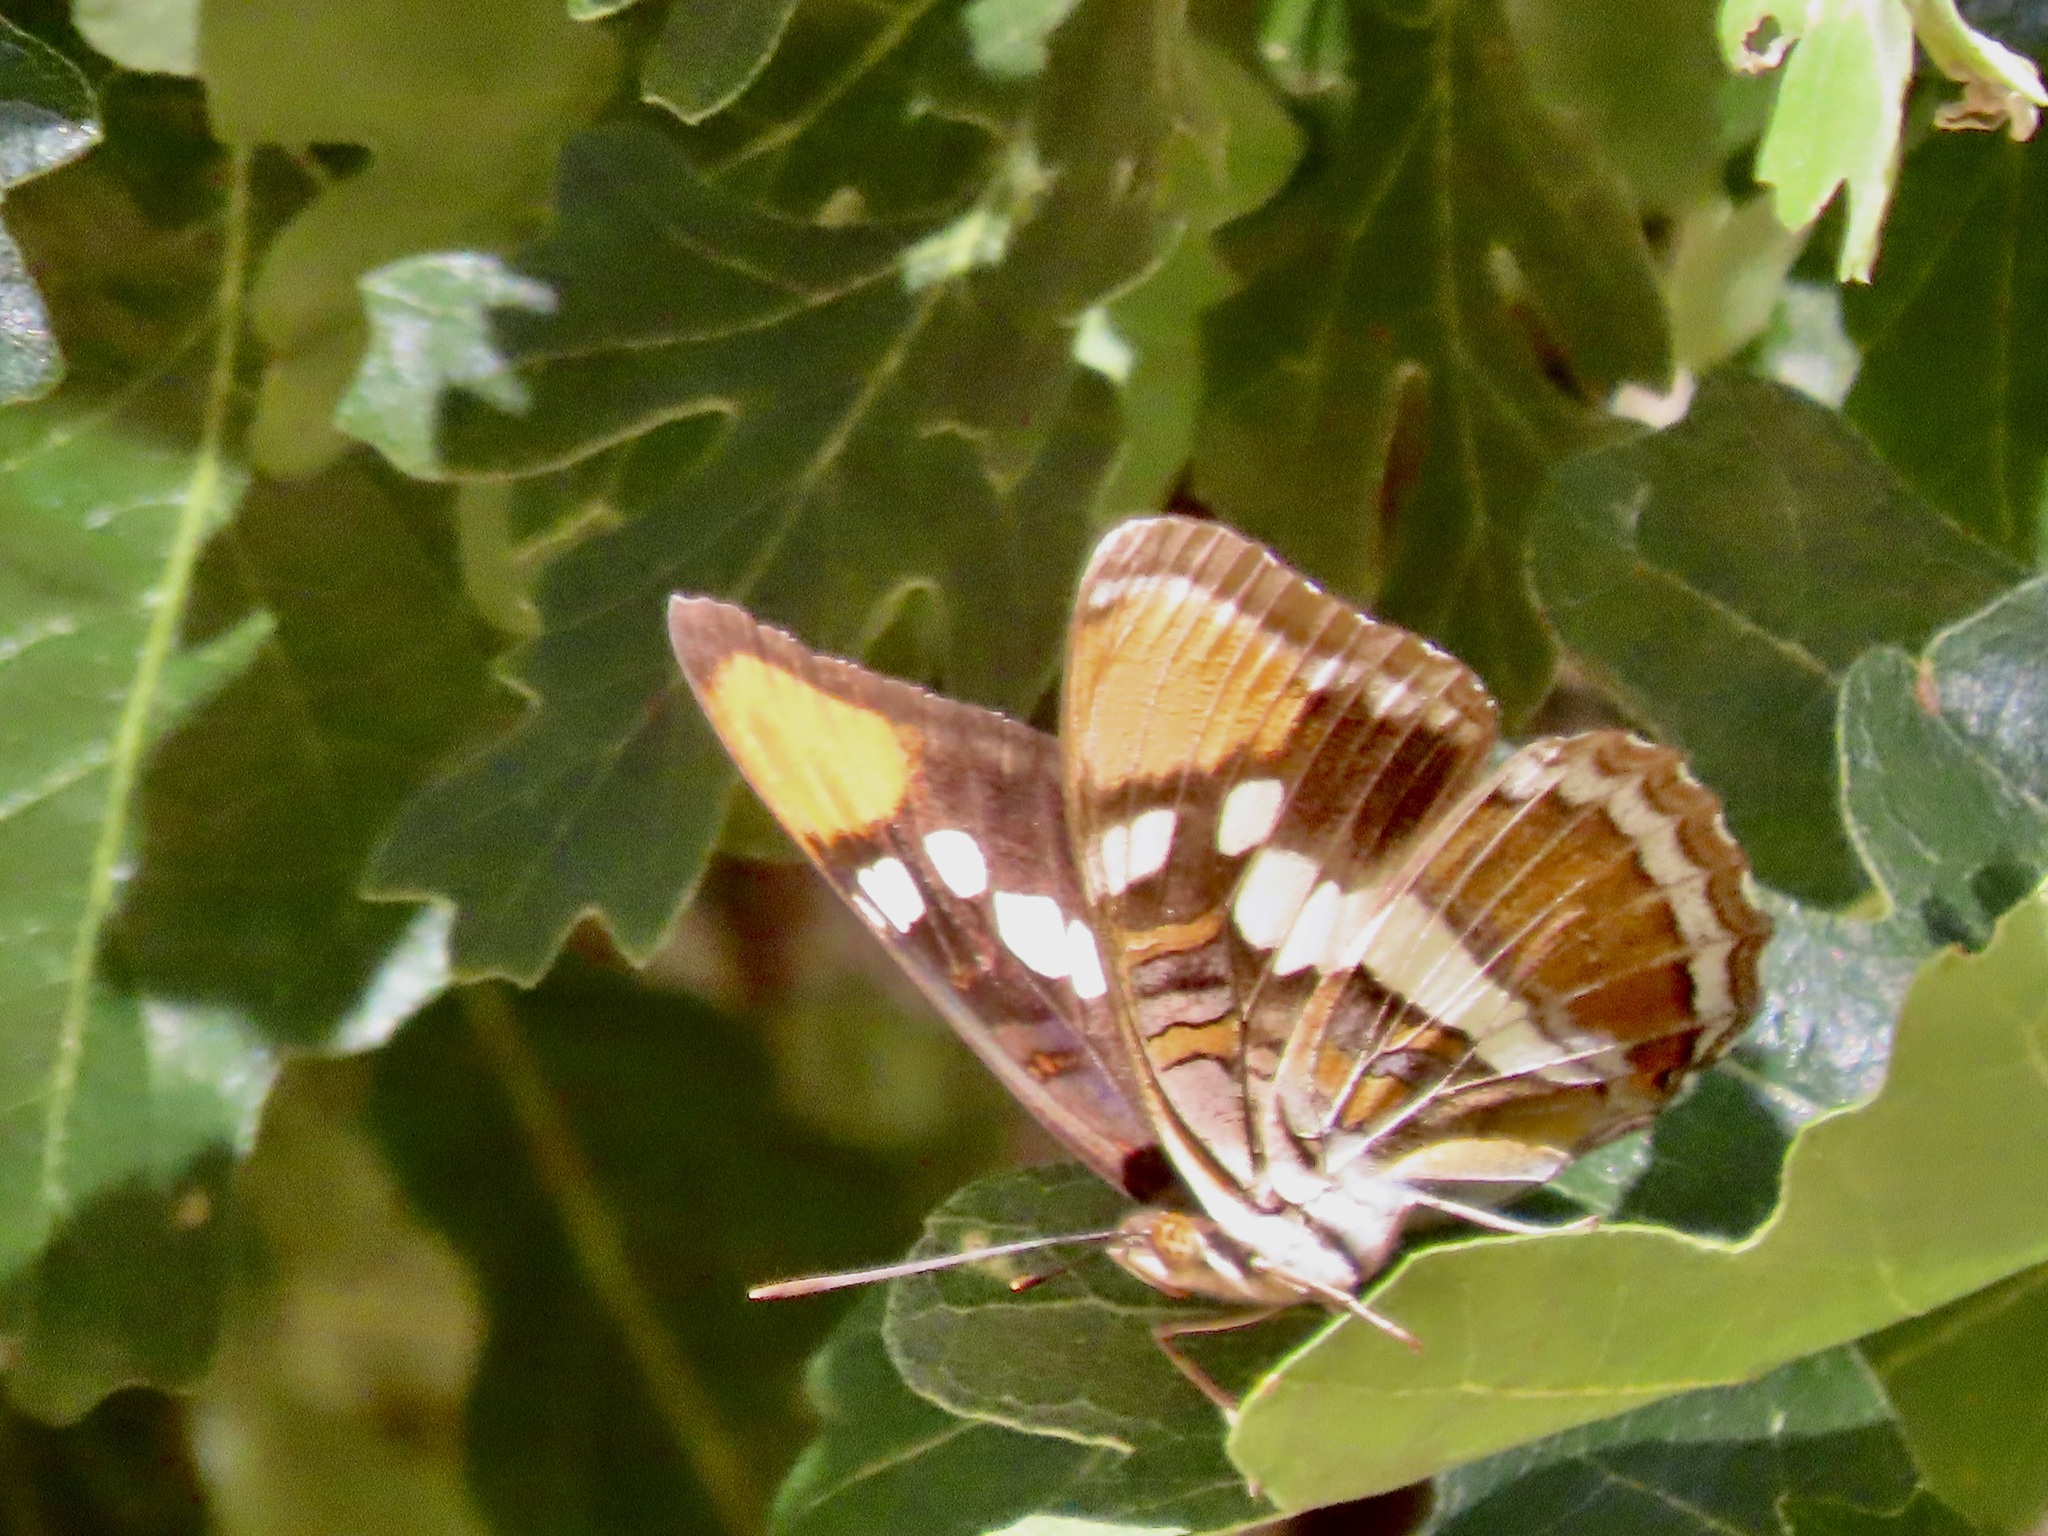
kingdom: Animalia
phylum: Arthropoda
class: Insecta
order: Lepidoptera
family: Nymphalidae
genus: Limenitis
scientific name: Limenitis bredowii
